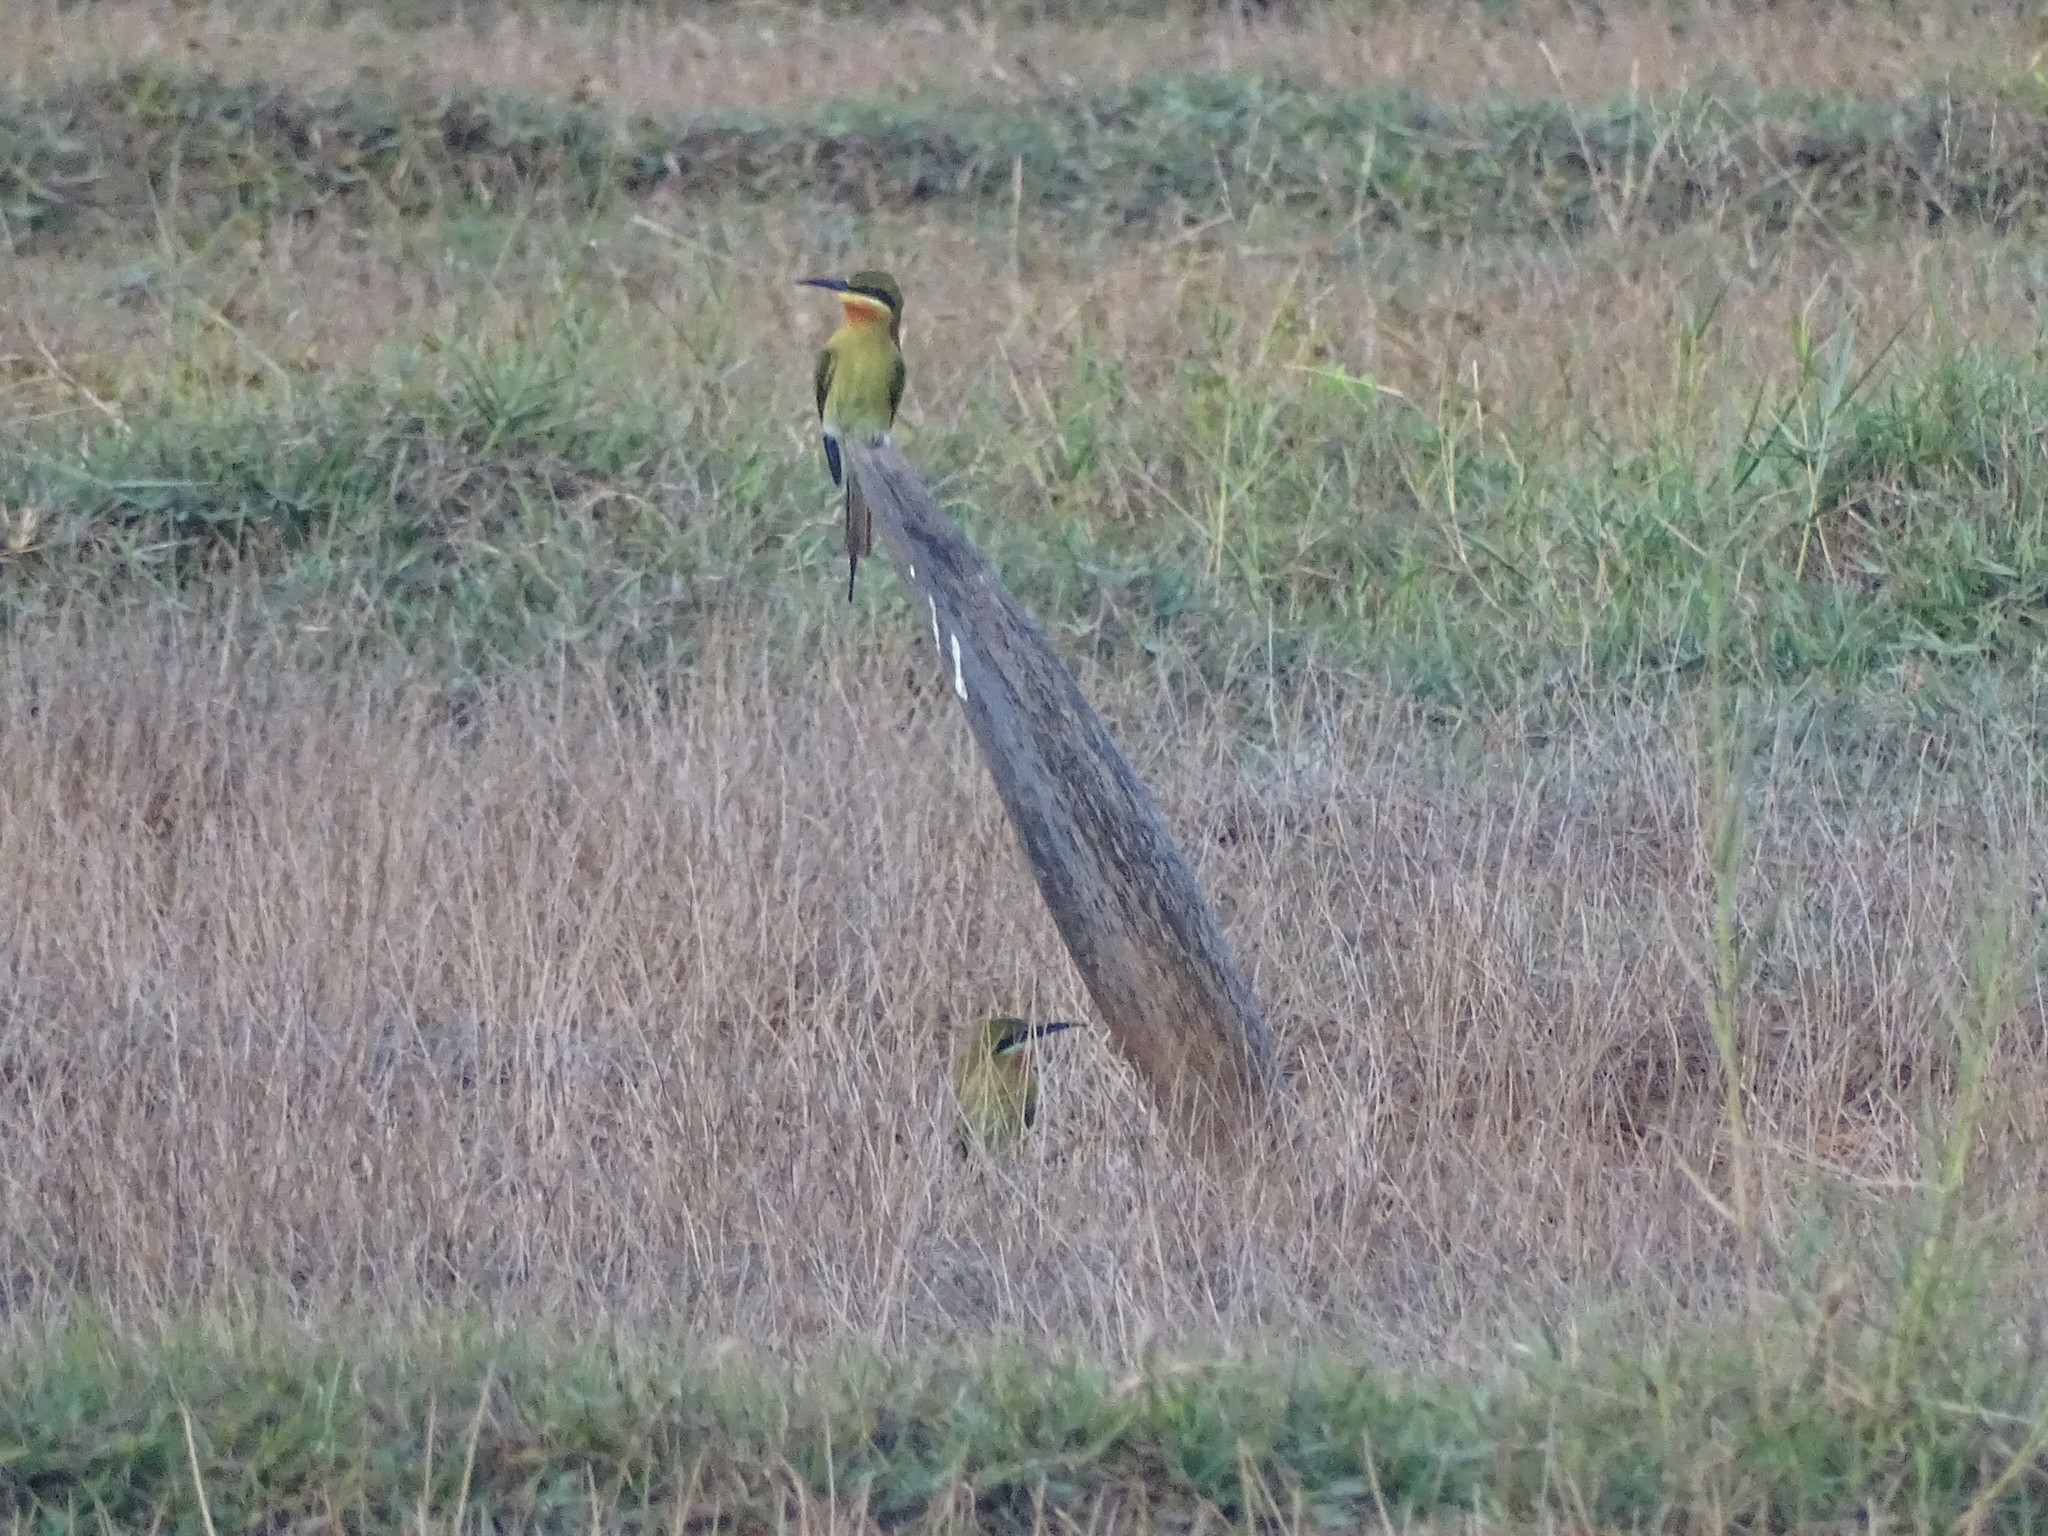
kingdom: Animalia
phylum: Chordata
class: Aves
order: Coraciiformes
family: Meropidae
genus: Merops
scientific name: Merops philippinus
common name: Blue-tailed bee-eater
